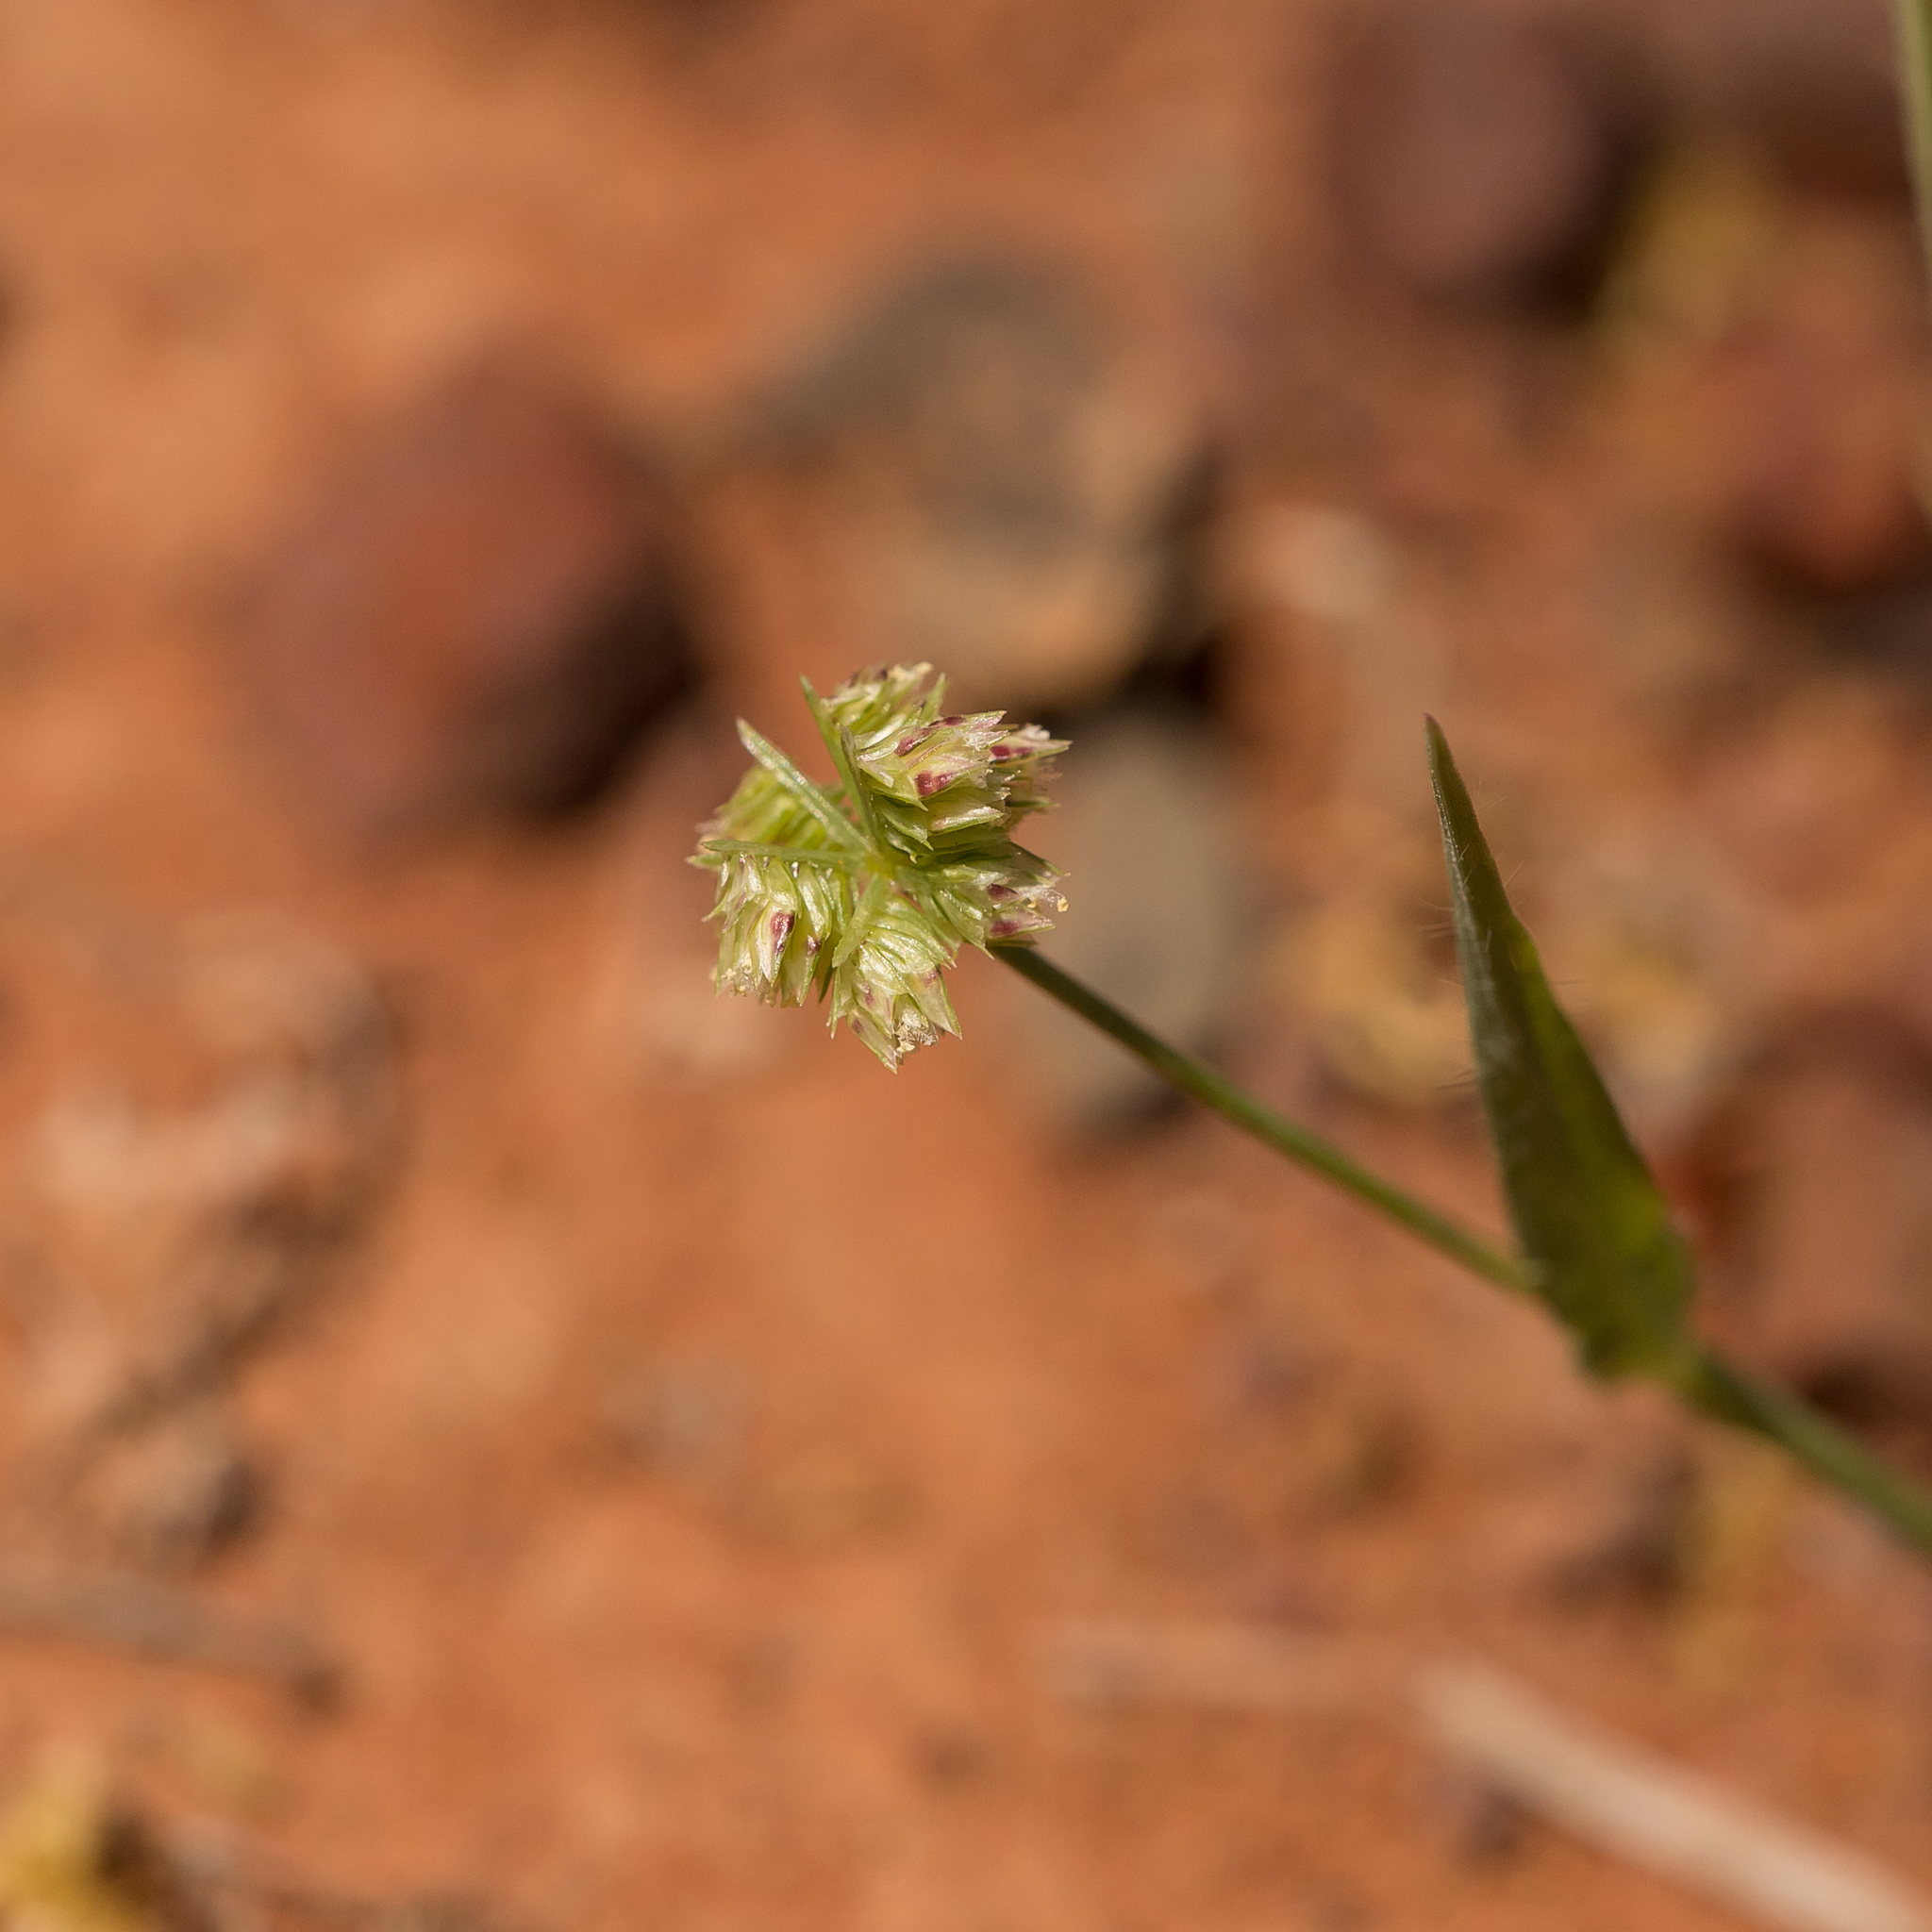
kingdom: Plantae
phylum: Tracheophyta
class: Liliopsida
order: Poales
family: Poaceae
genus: Dactyloctenium
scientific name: Dactyloctenium radulans
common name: Button-grass
